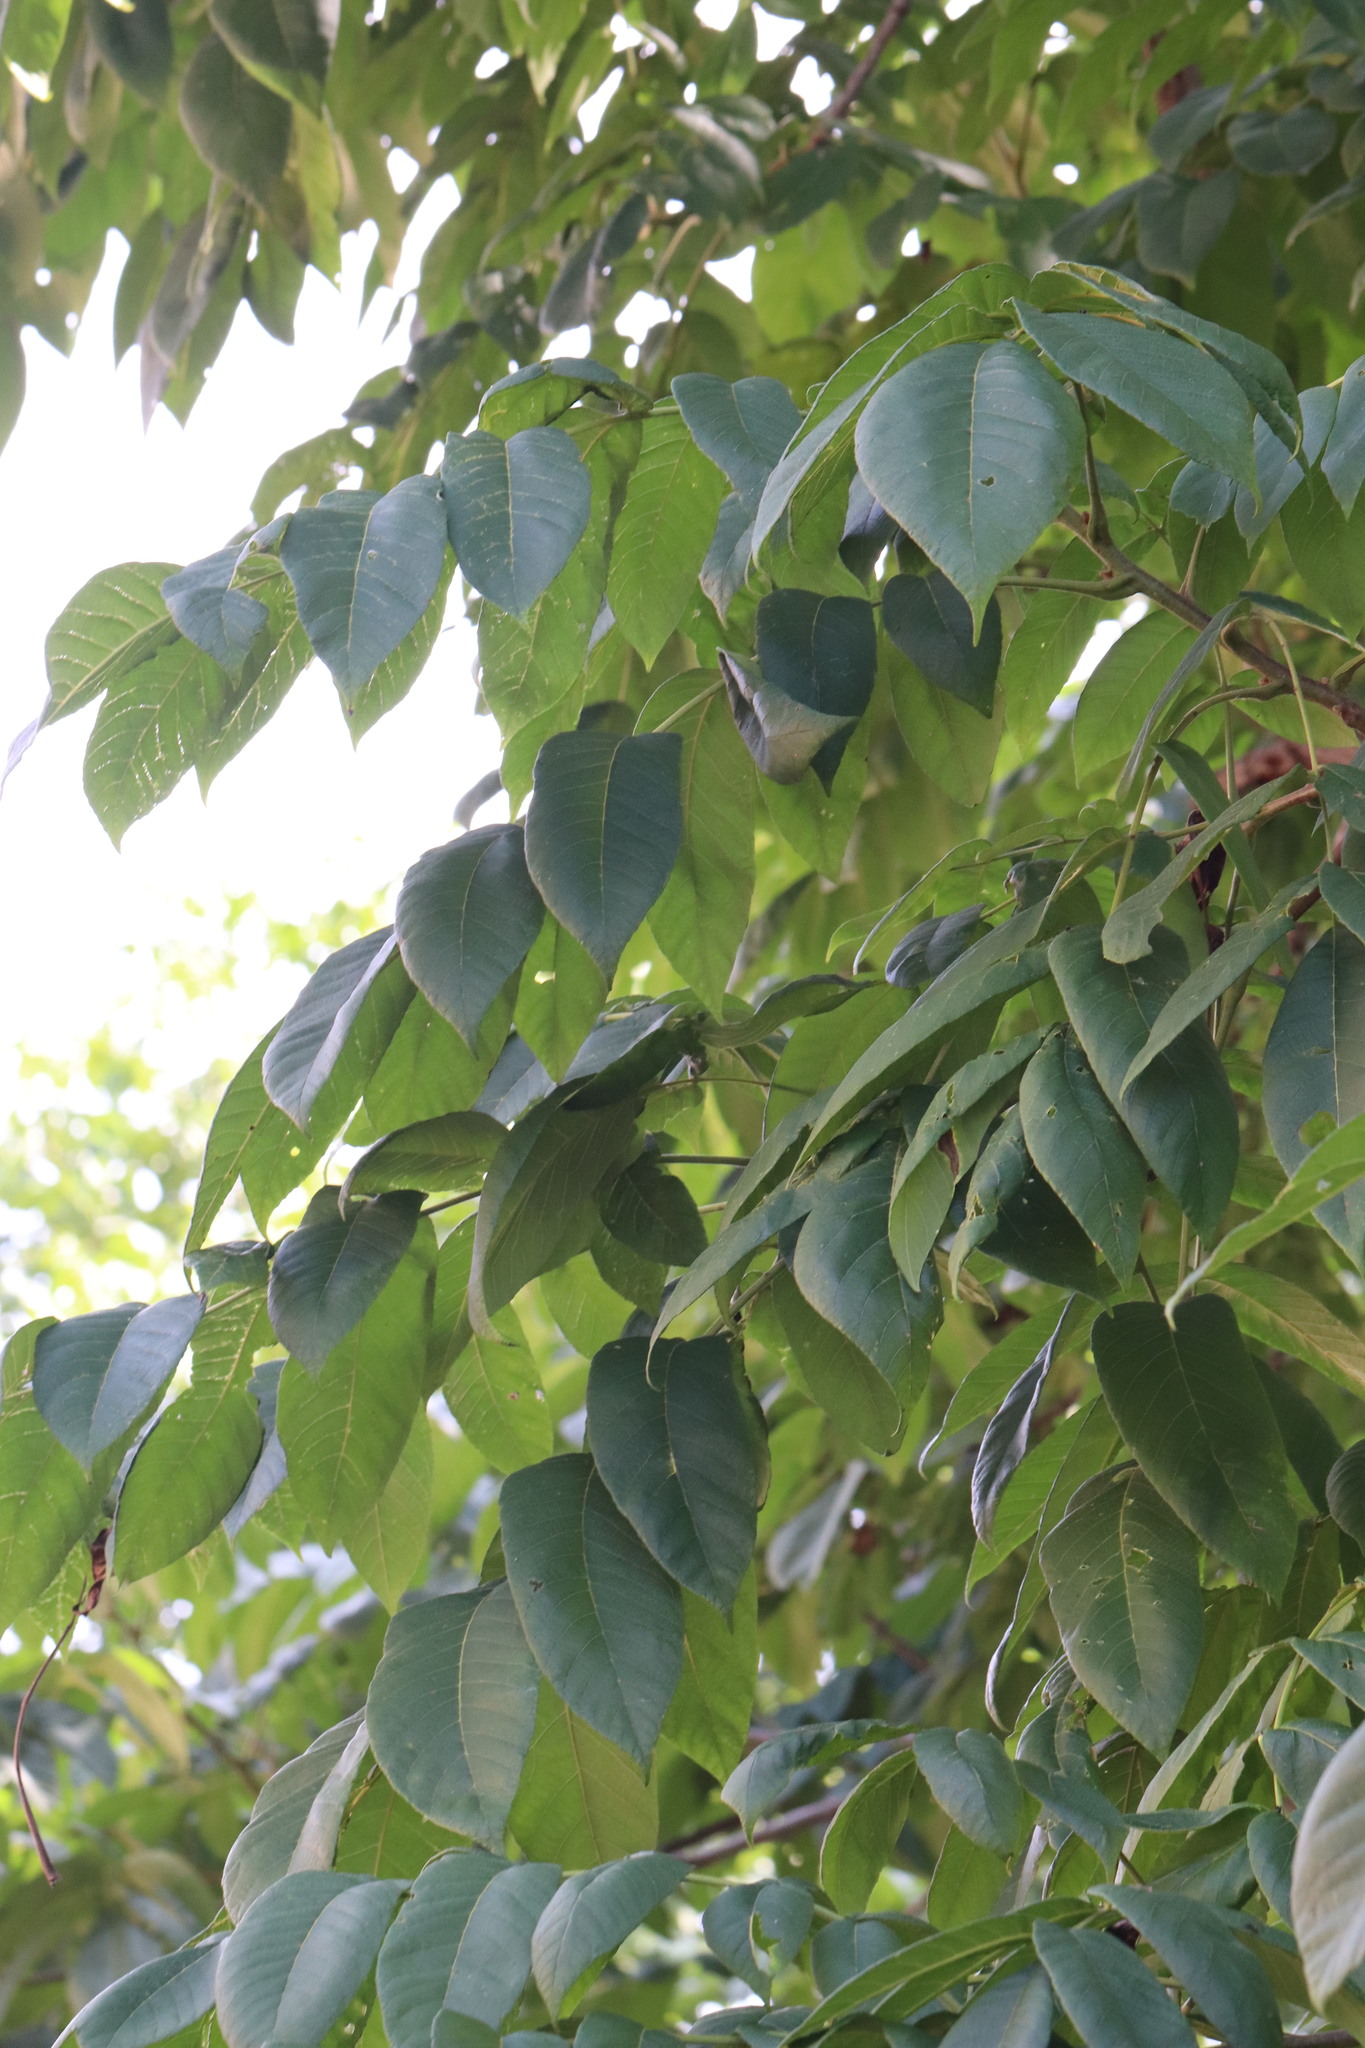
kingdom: Plantae
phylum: Tracheophyta
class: Magnoliopsida
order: Fagales
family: Juglandaceae
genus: Juglans
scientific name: Juglans mandshurica
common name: Manchurian walnut
